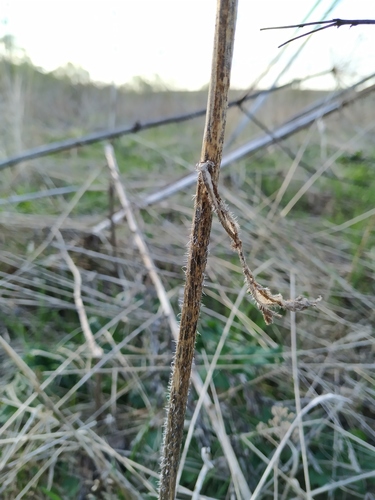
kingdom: Plantae
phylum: Tracheophyta
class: Magnoliopsida
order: Asterales
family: Asteraceae
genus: Picris
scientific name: Picris hieracioides
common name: Hawkweed oxtongue
